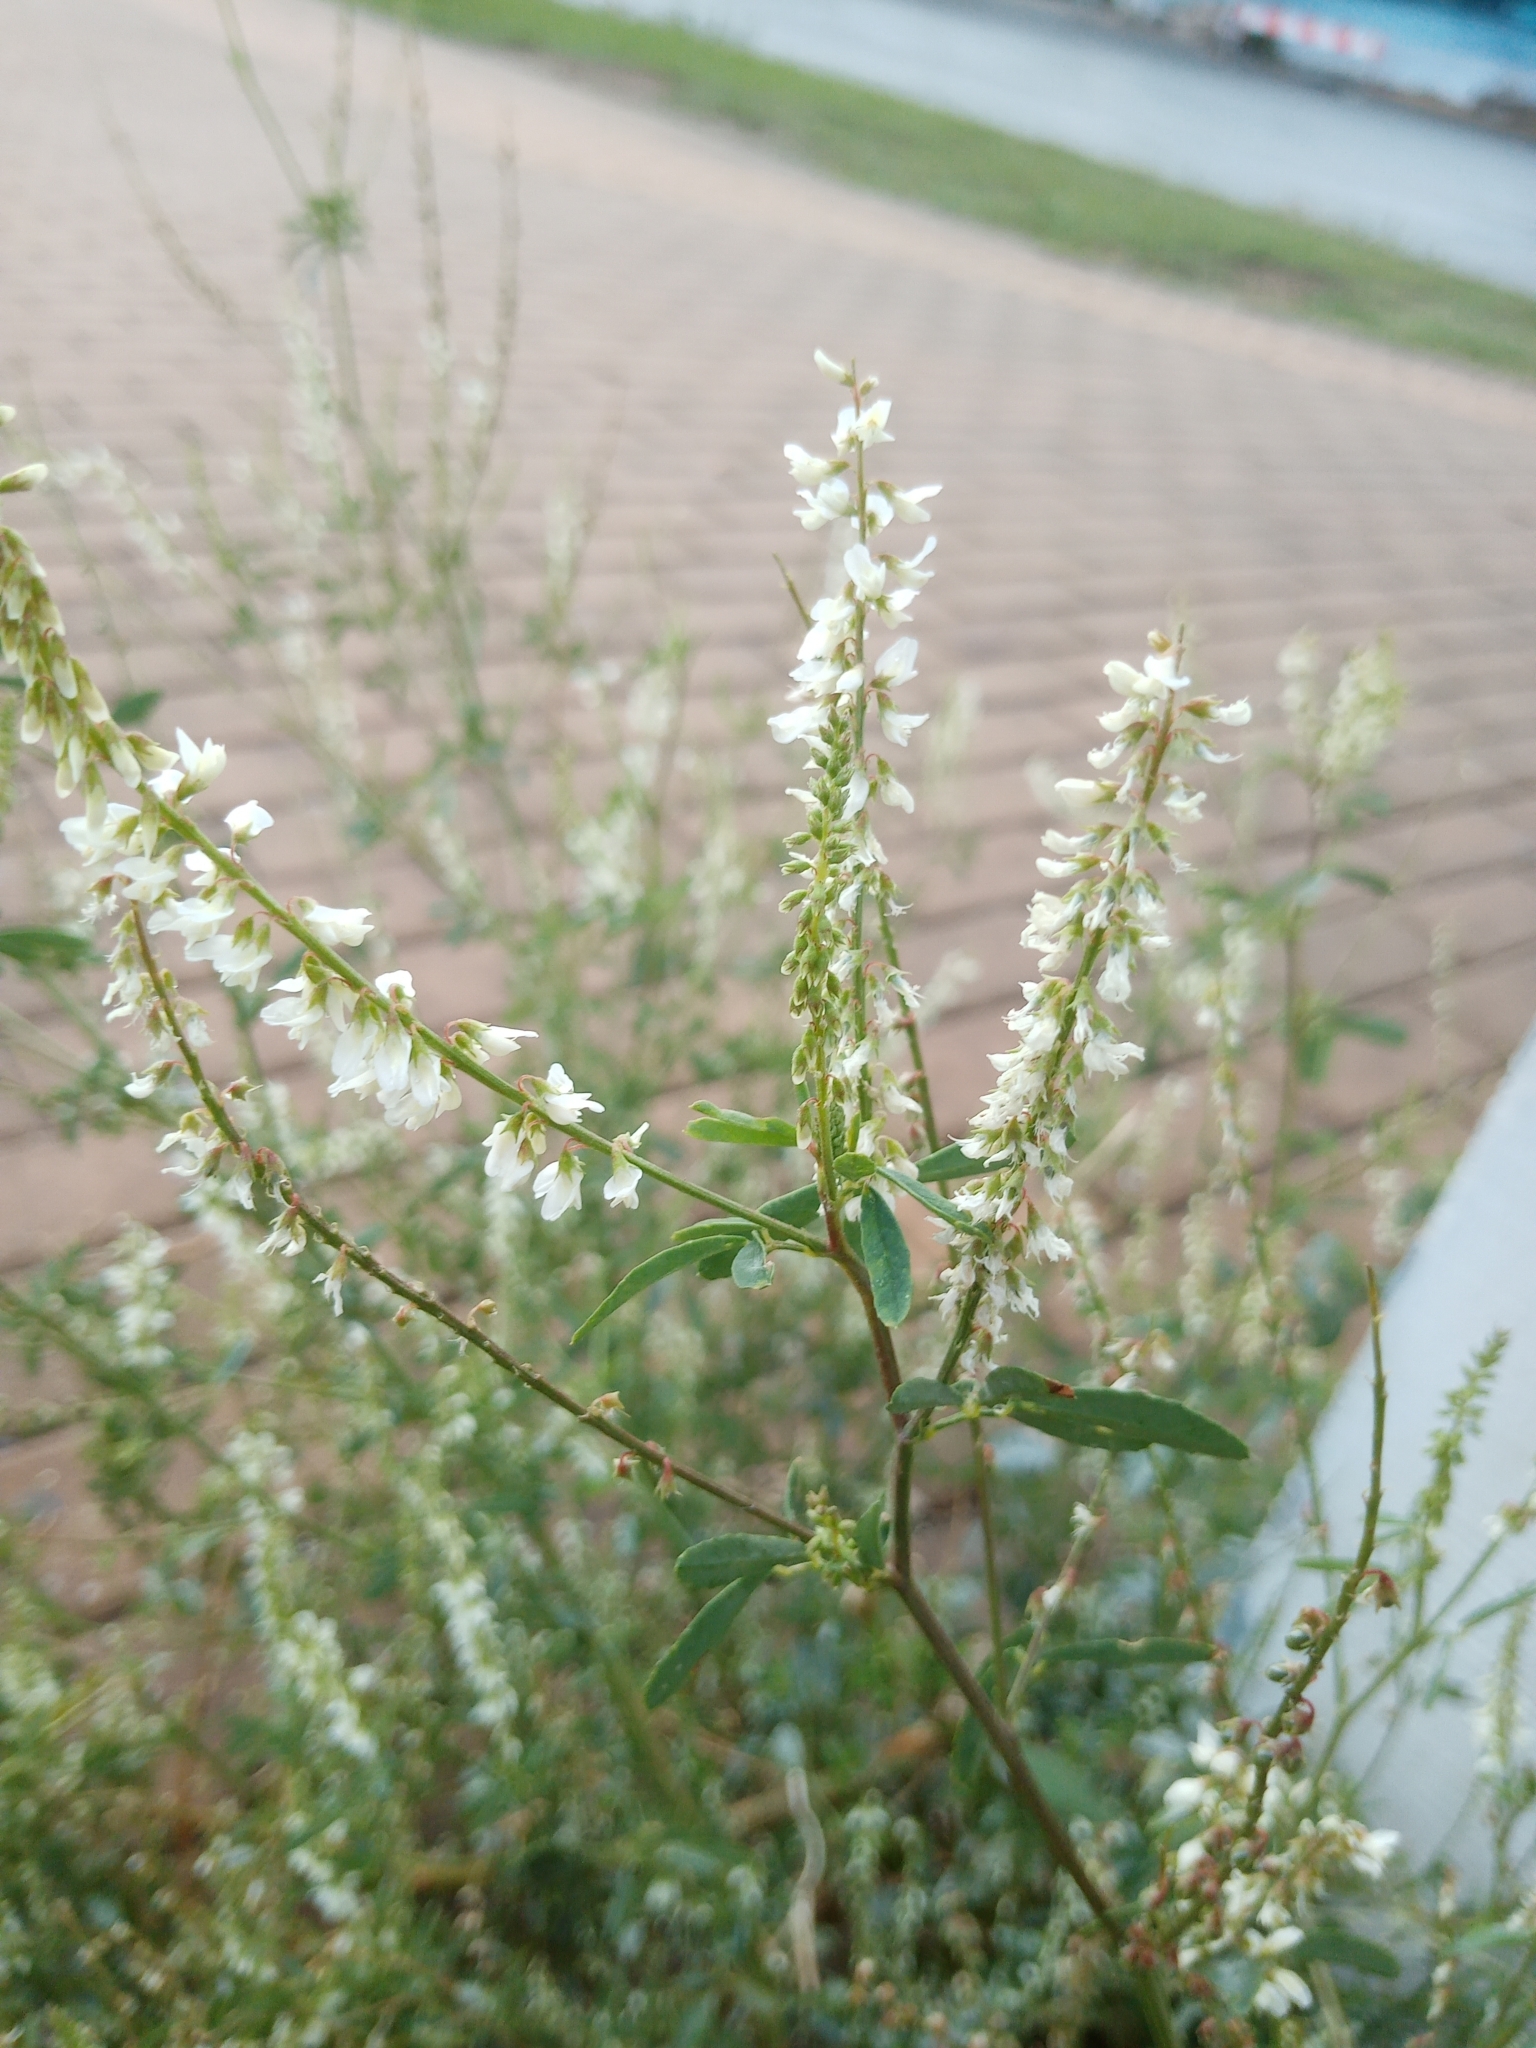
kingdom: Plantae
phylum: Tracheophyta
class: Magnoliopsida
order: Fabales
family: Fabaceae
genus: Melilotus
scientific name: Melilotus albus
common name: White melilot
